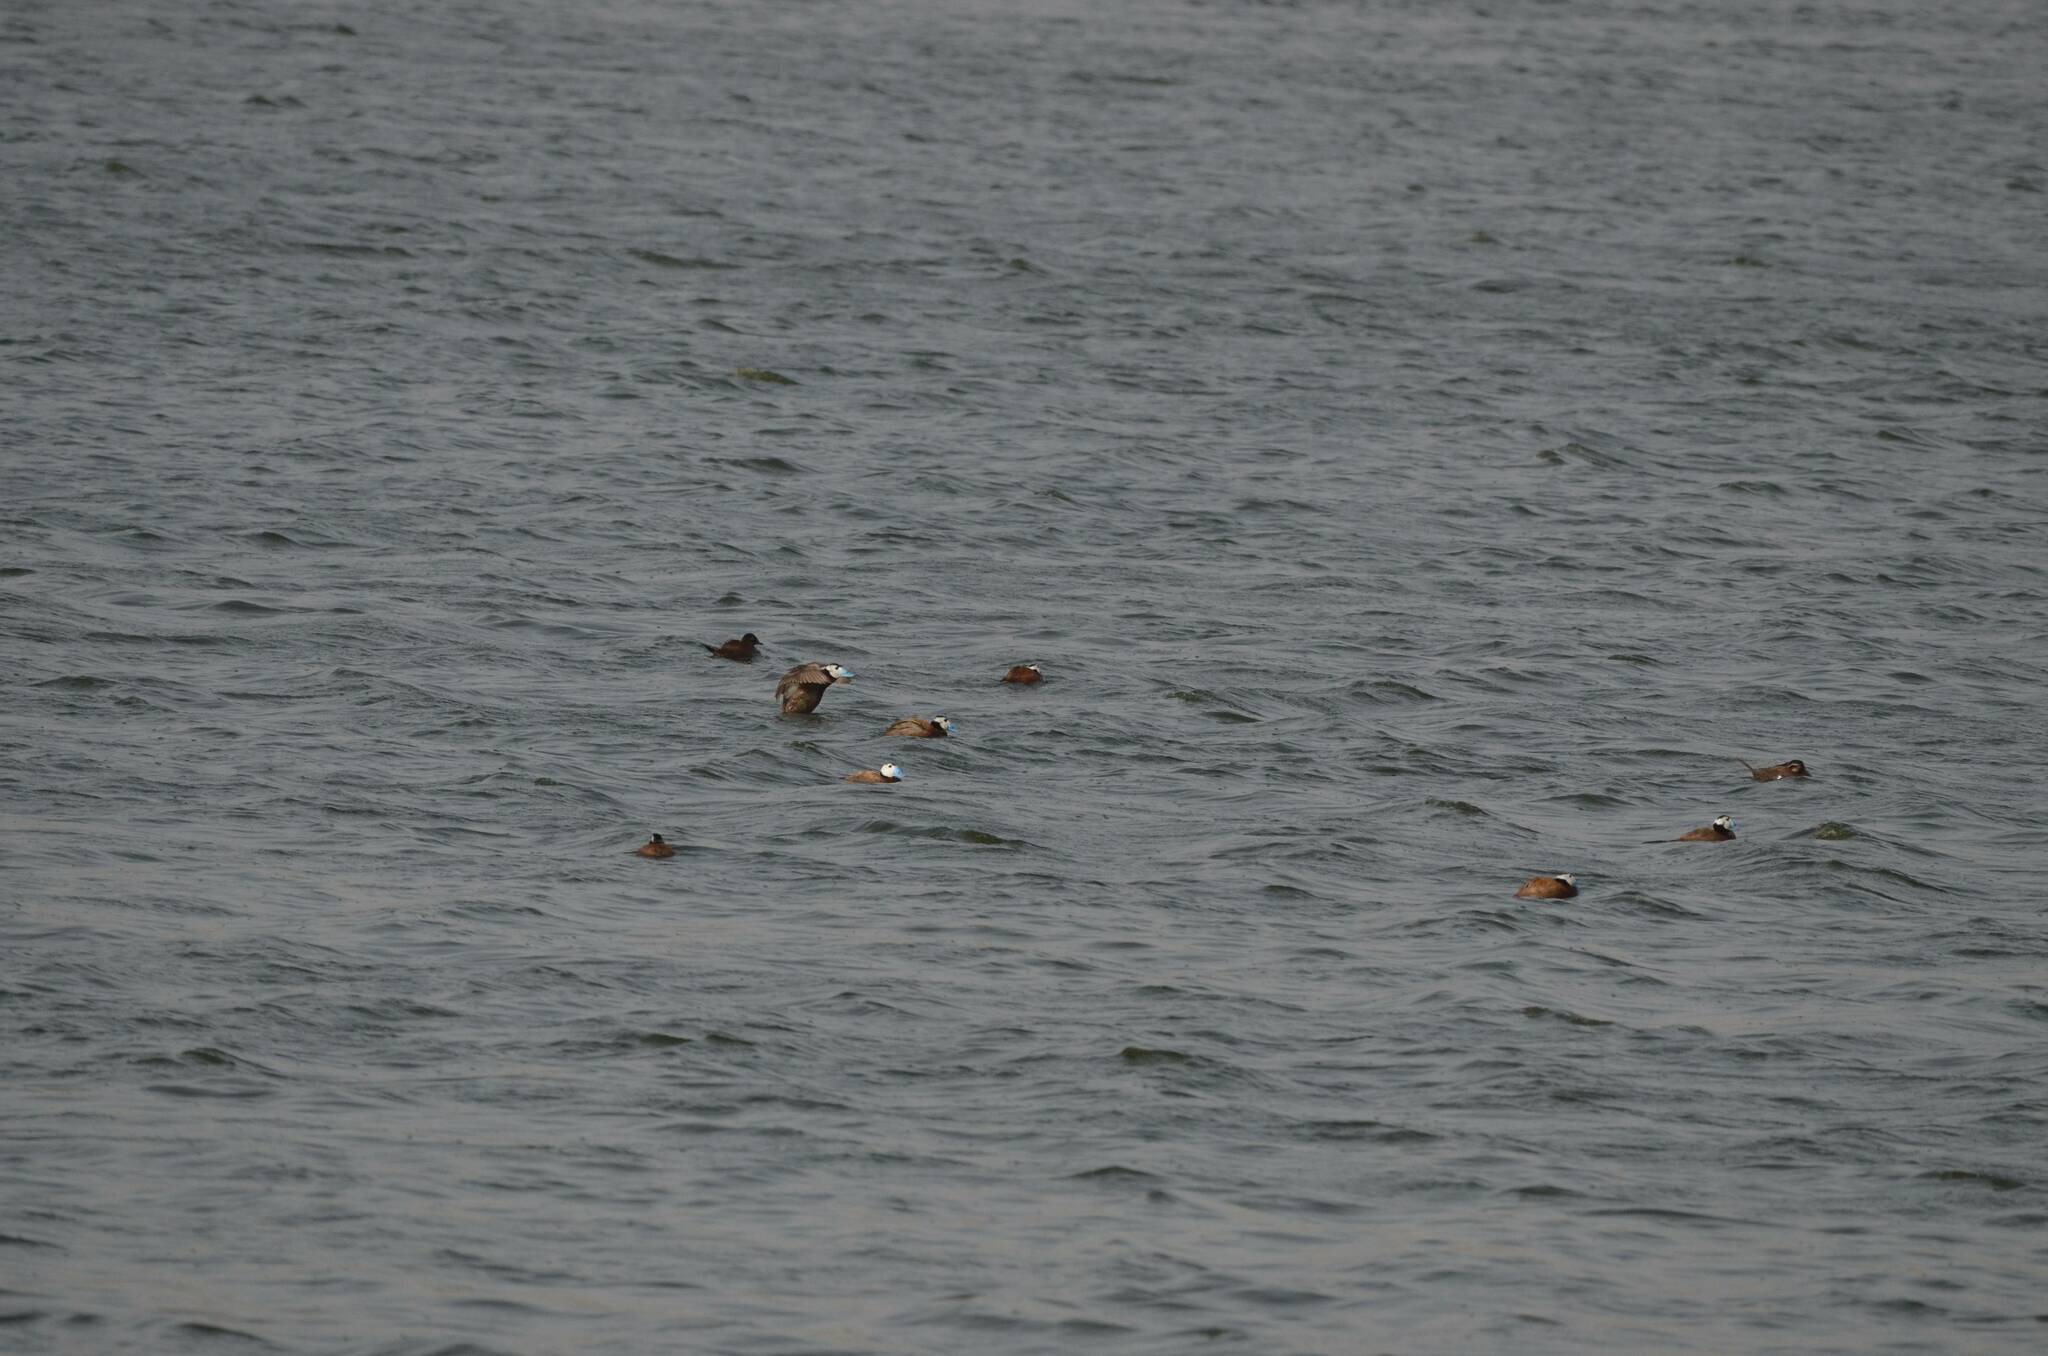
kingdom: Animalia
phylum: Chordata
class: Aves
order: Anseriformes
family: Anatidae
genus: Oxyura
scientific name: Oxyura leucocephala
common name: White-headed duck
